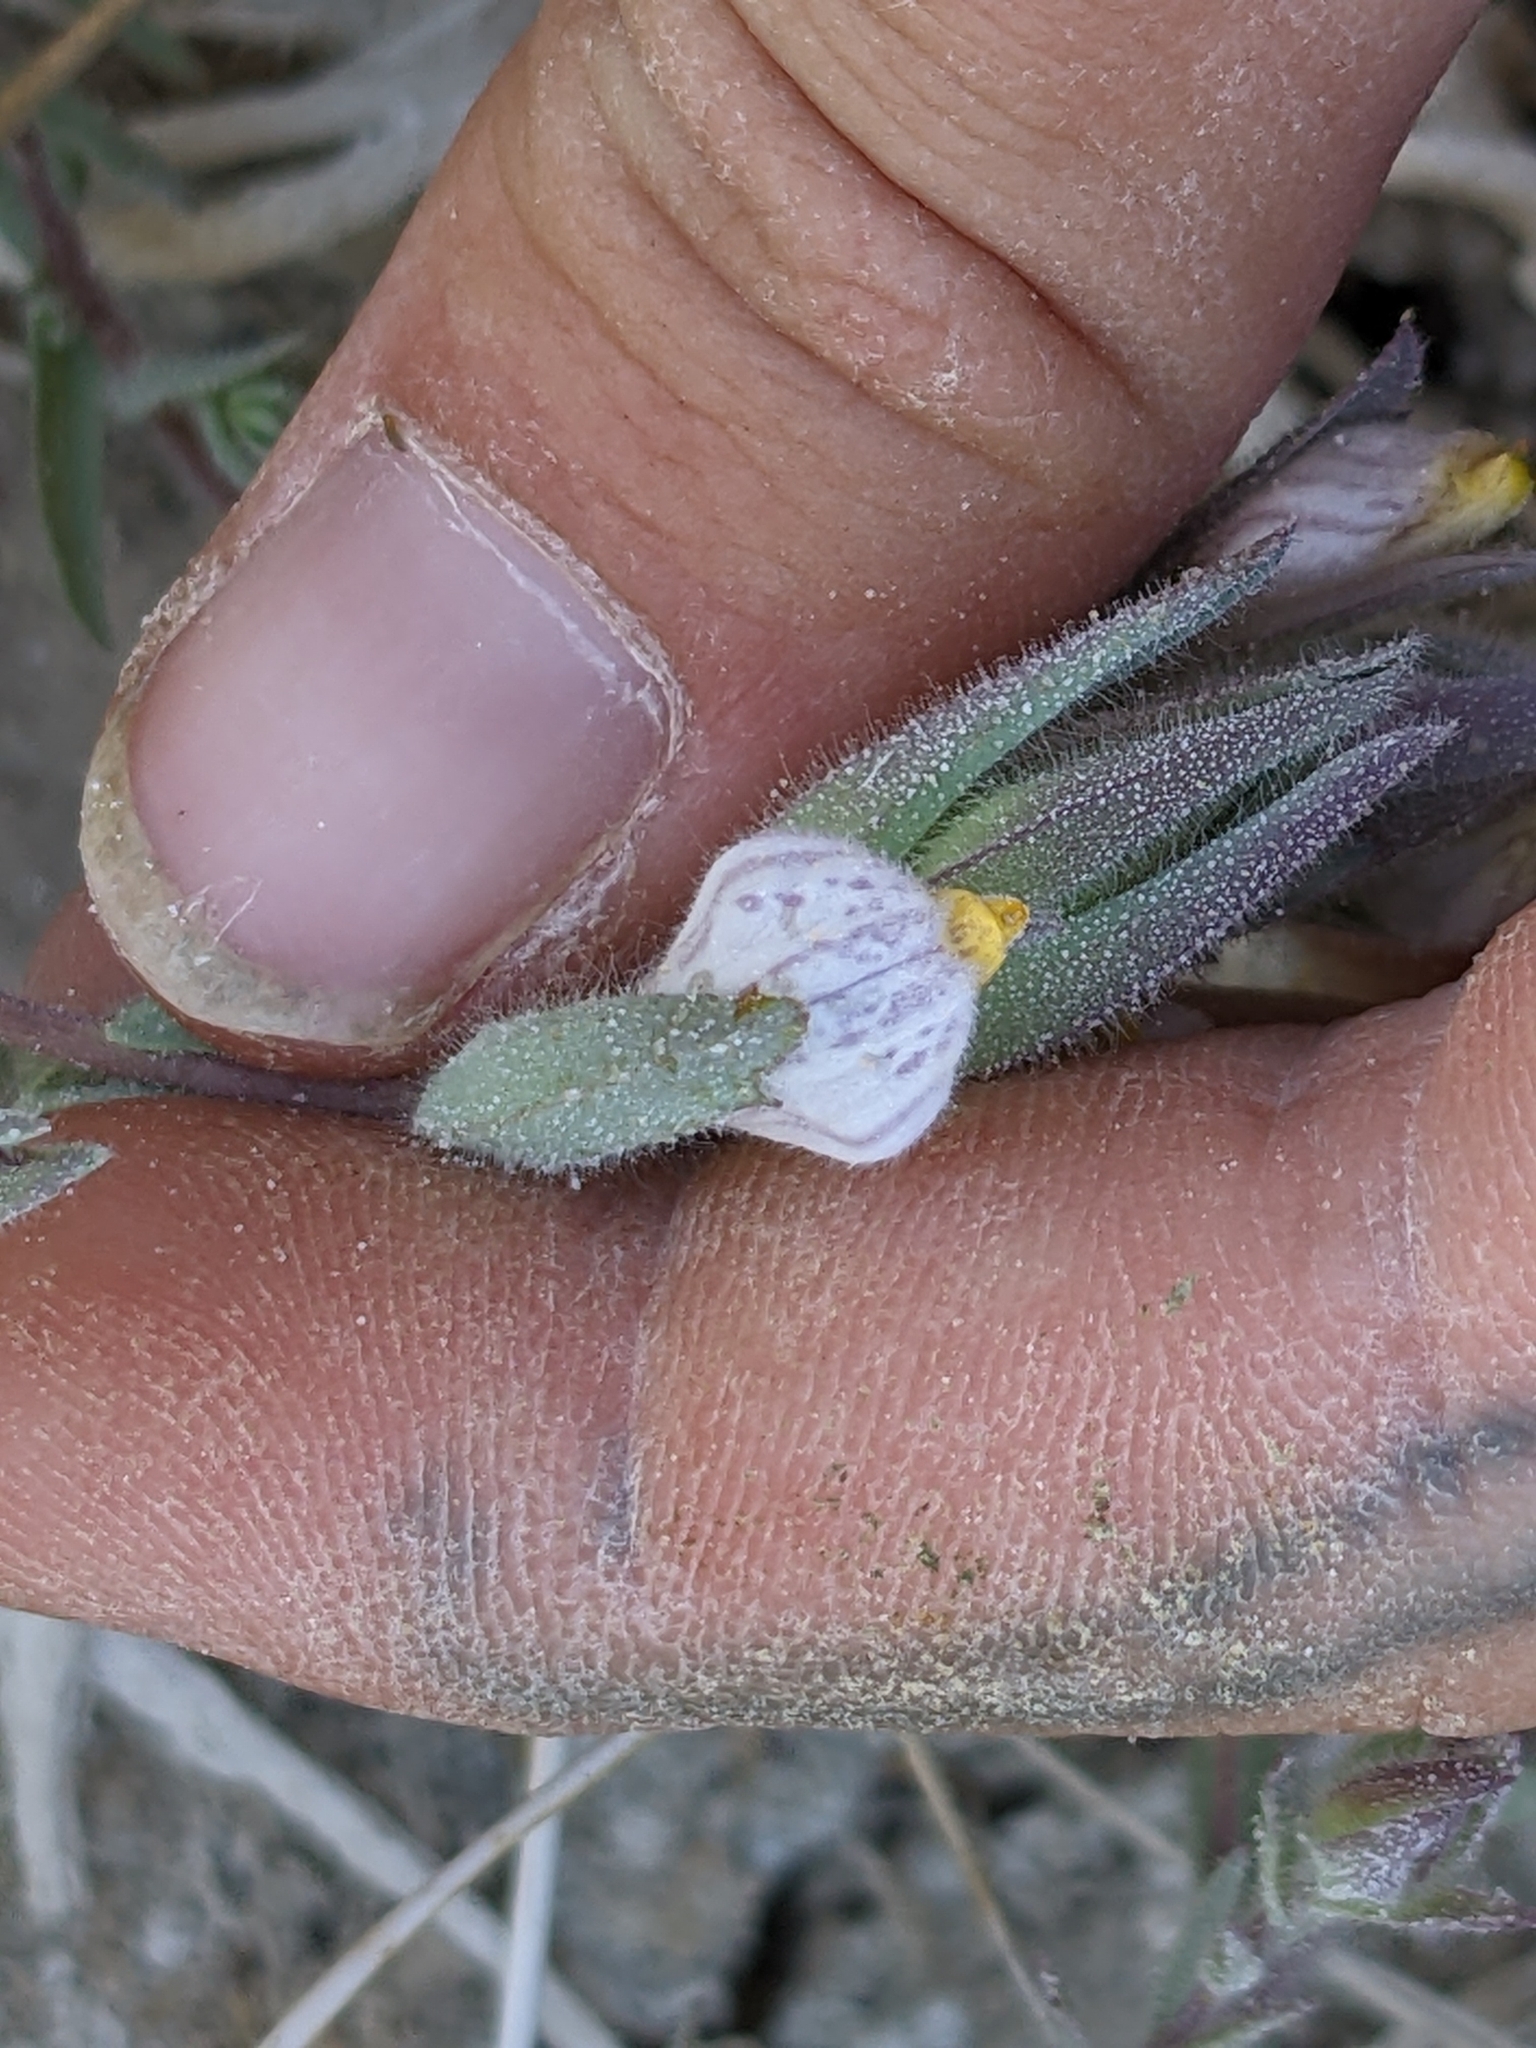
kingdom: Plantae
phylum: Tracheophyta
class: Magnoliopsida
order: Lamiales
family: Orobanchaceae
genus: Chloropyron
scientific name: Chloropyron maritimum
